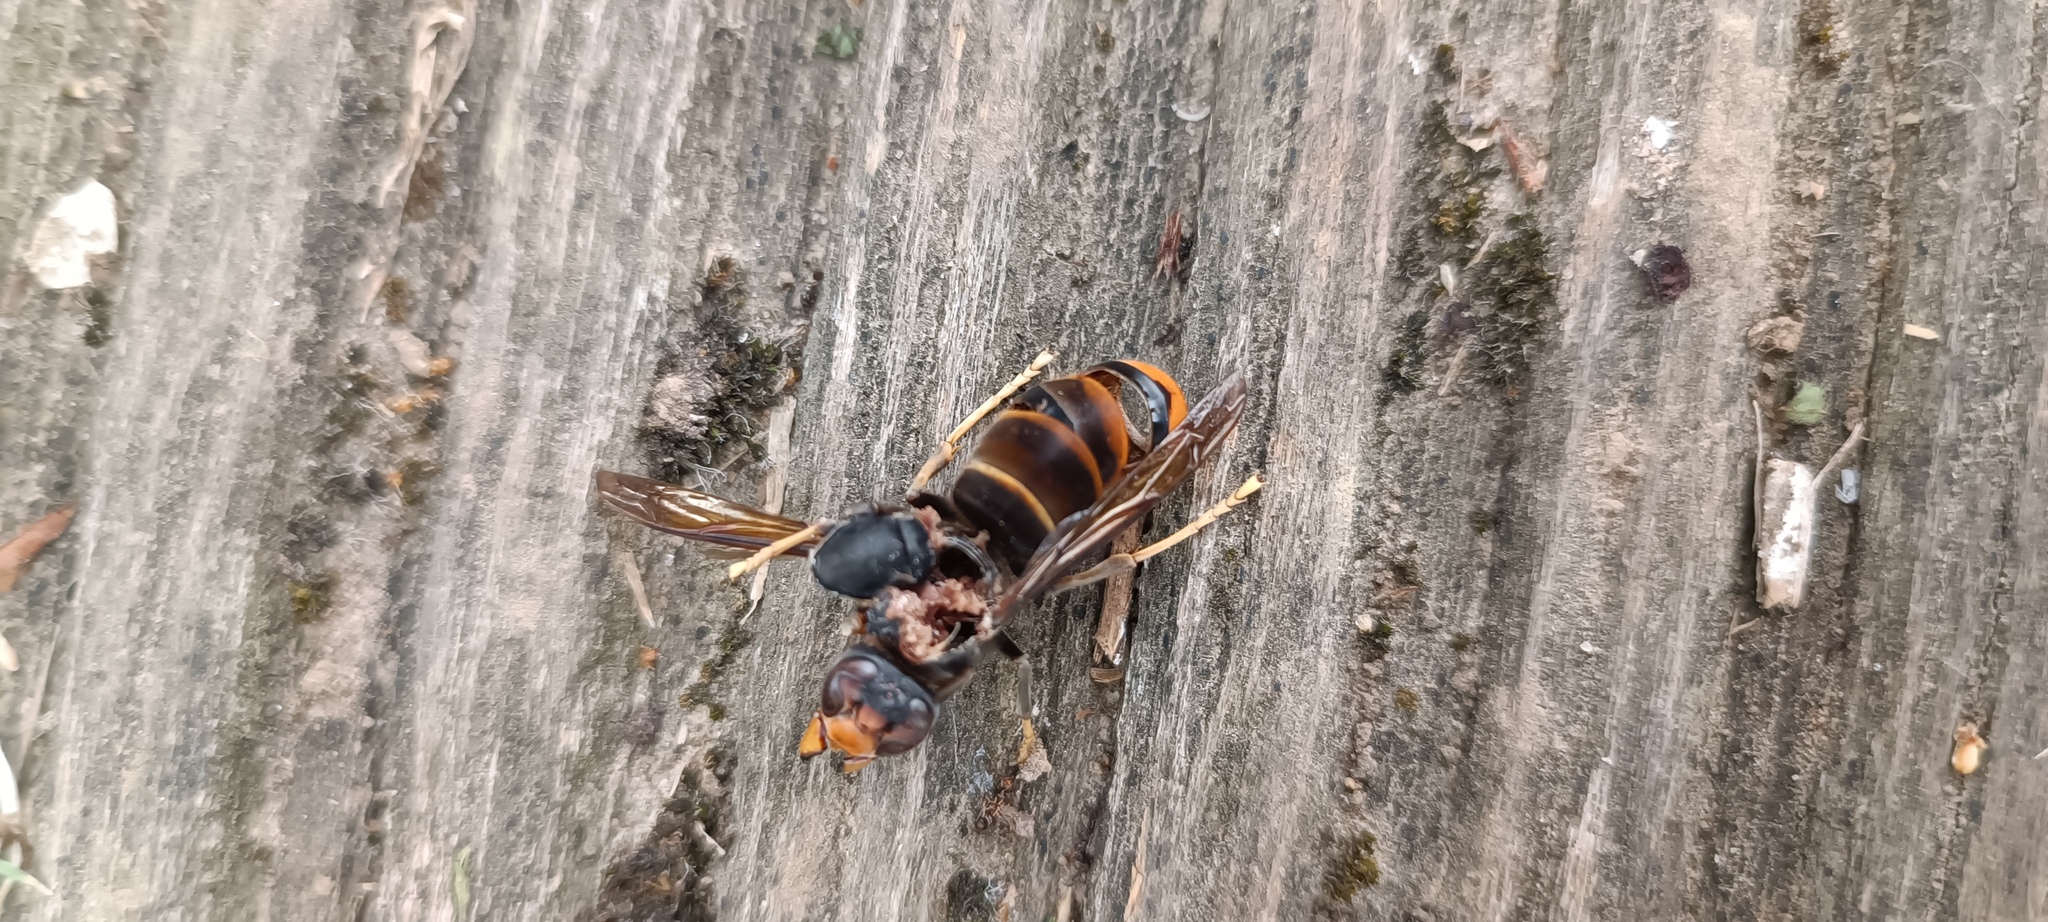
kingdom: Animalia
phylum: Arthropoda
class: Insecta
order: Hymenoptera
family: Vespidae
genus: Vespa
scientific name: Vespa velutina
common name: Asian hornet
